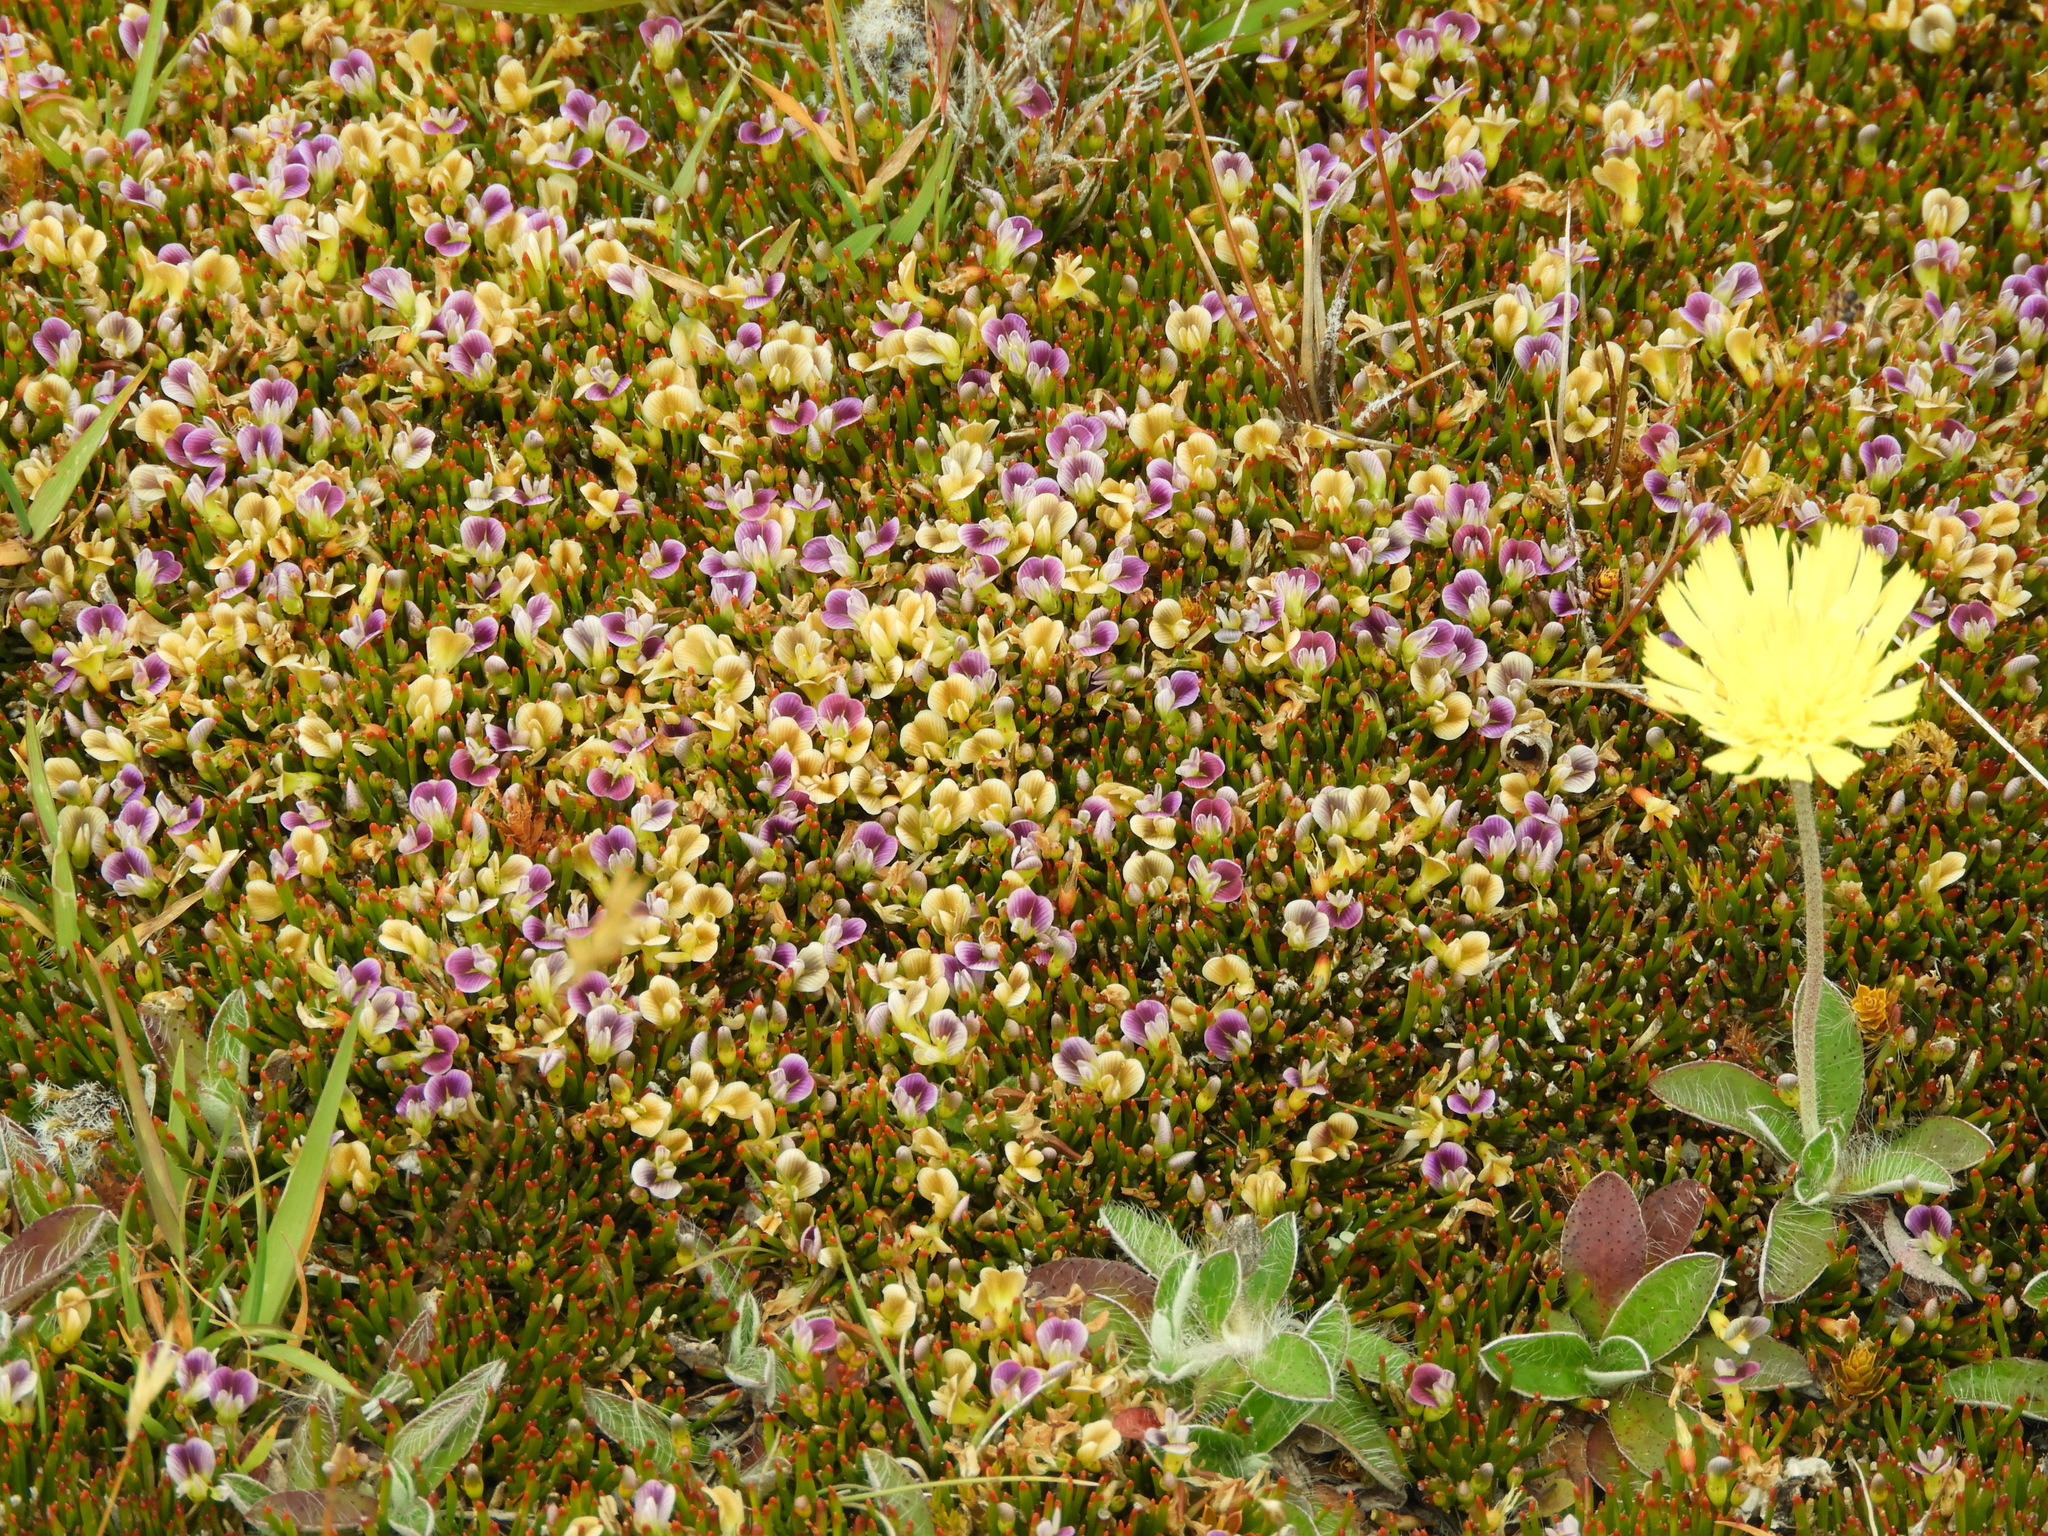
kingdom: Plantae
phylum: Tracheophyta
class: Magnoliopsida
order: Fabales
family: Fabaceae
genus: Carmichaelia
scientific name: Carmichaelia nana
